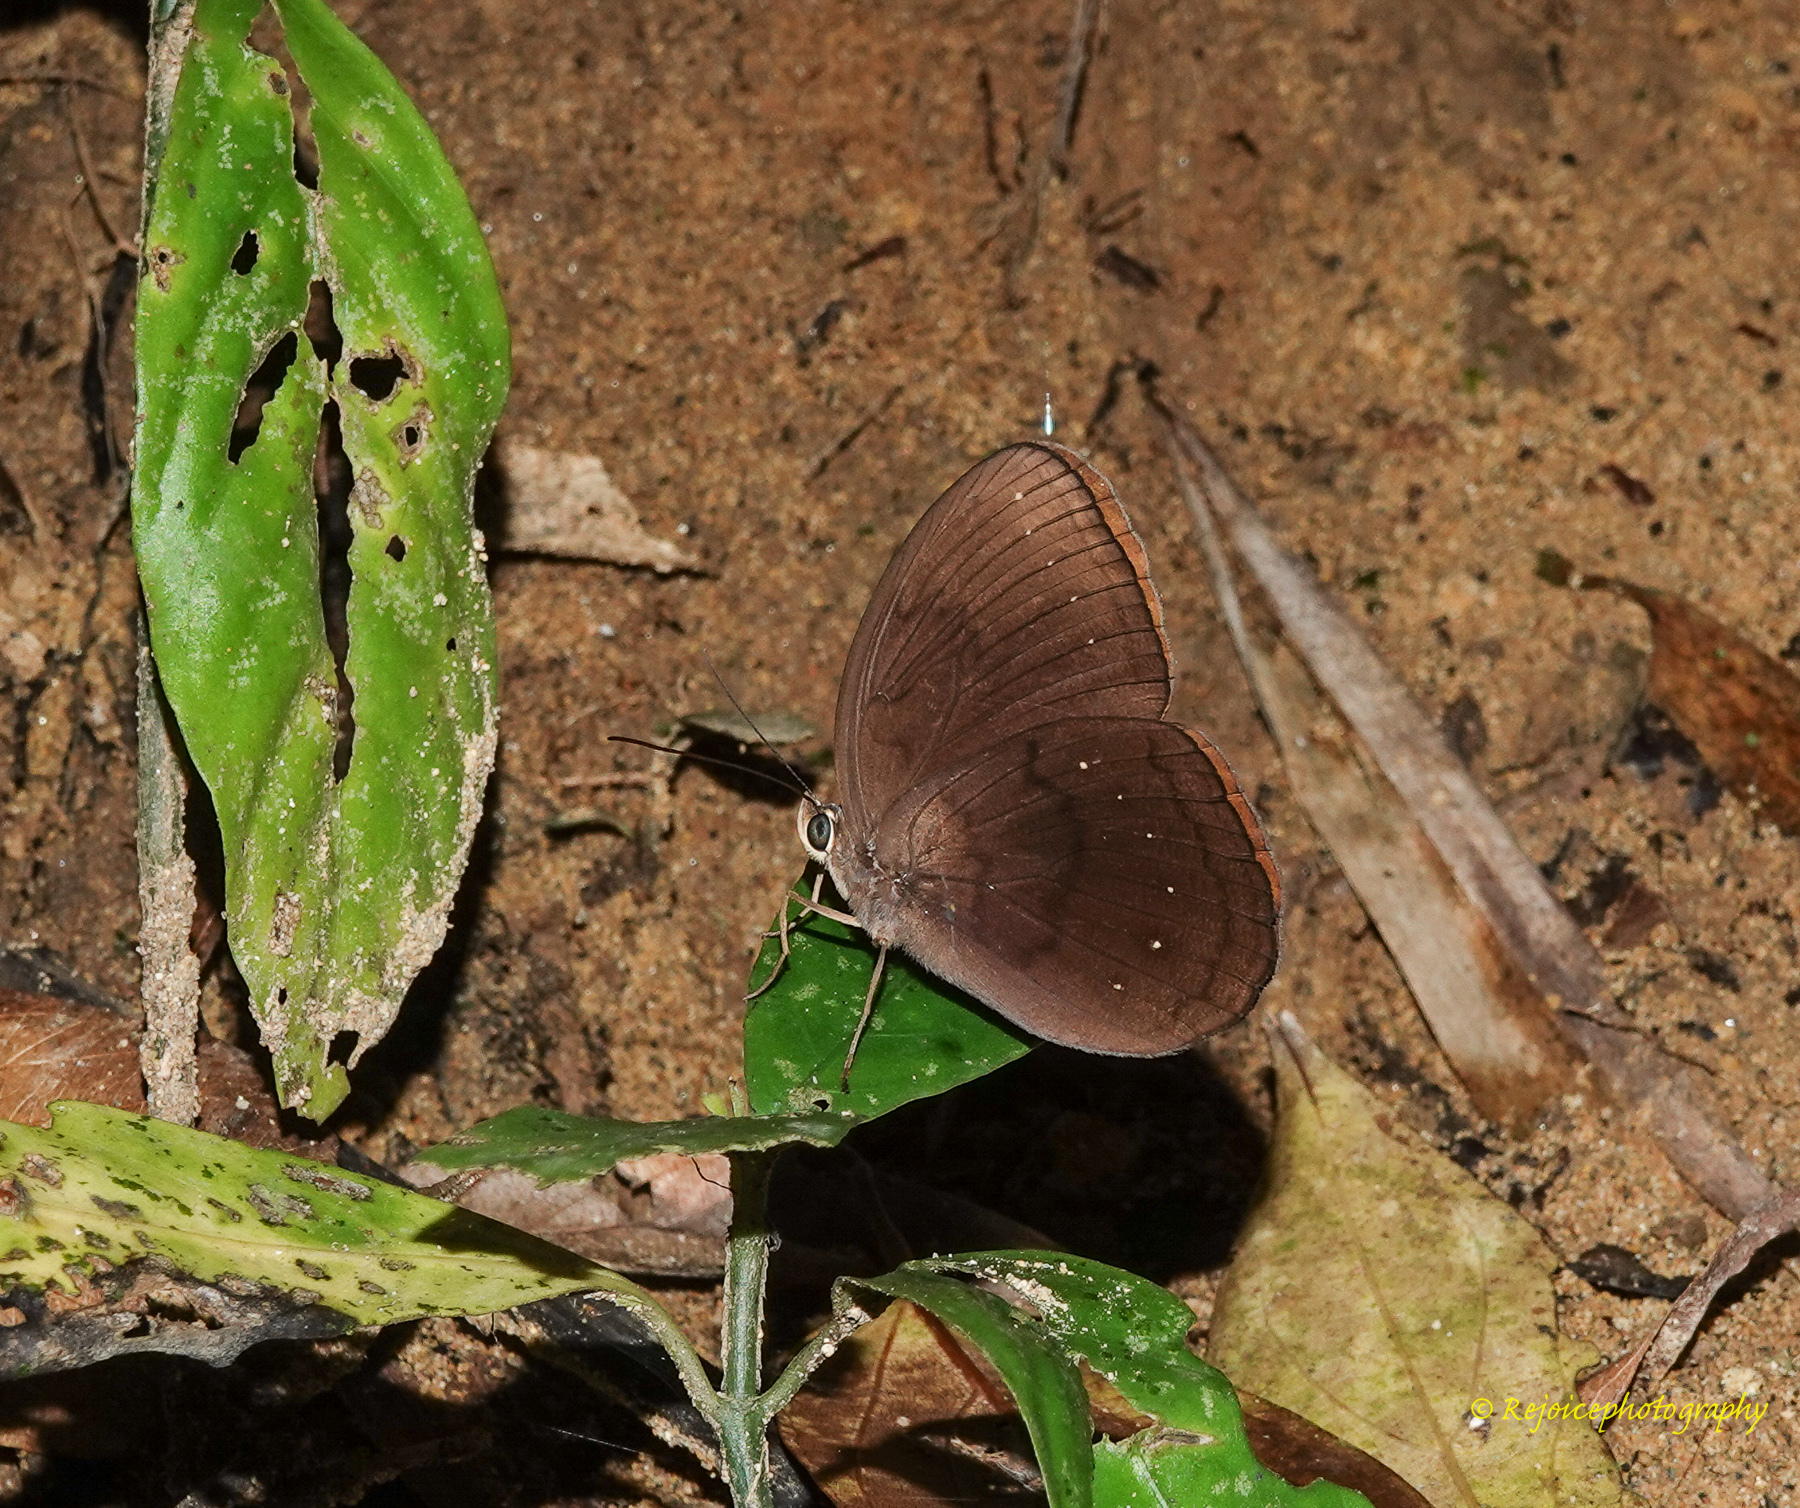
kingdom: Animalia
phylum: Arthropoda
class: Insecta
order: Lepidoptera
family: Nymphalidae
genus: Faunis
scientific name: Faunis canens
